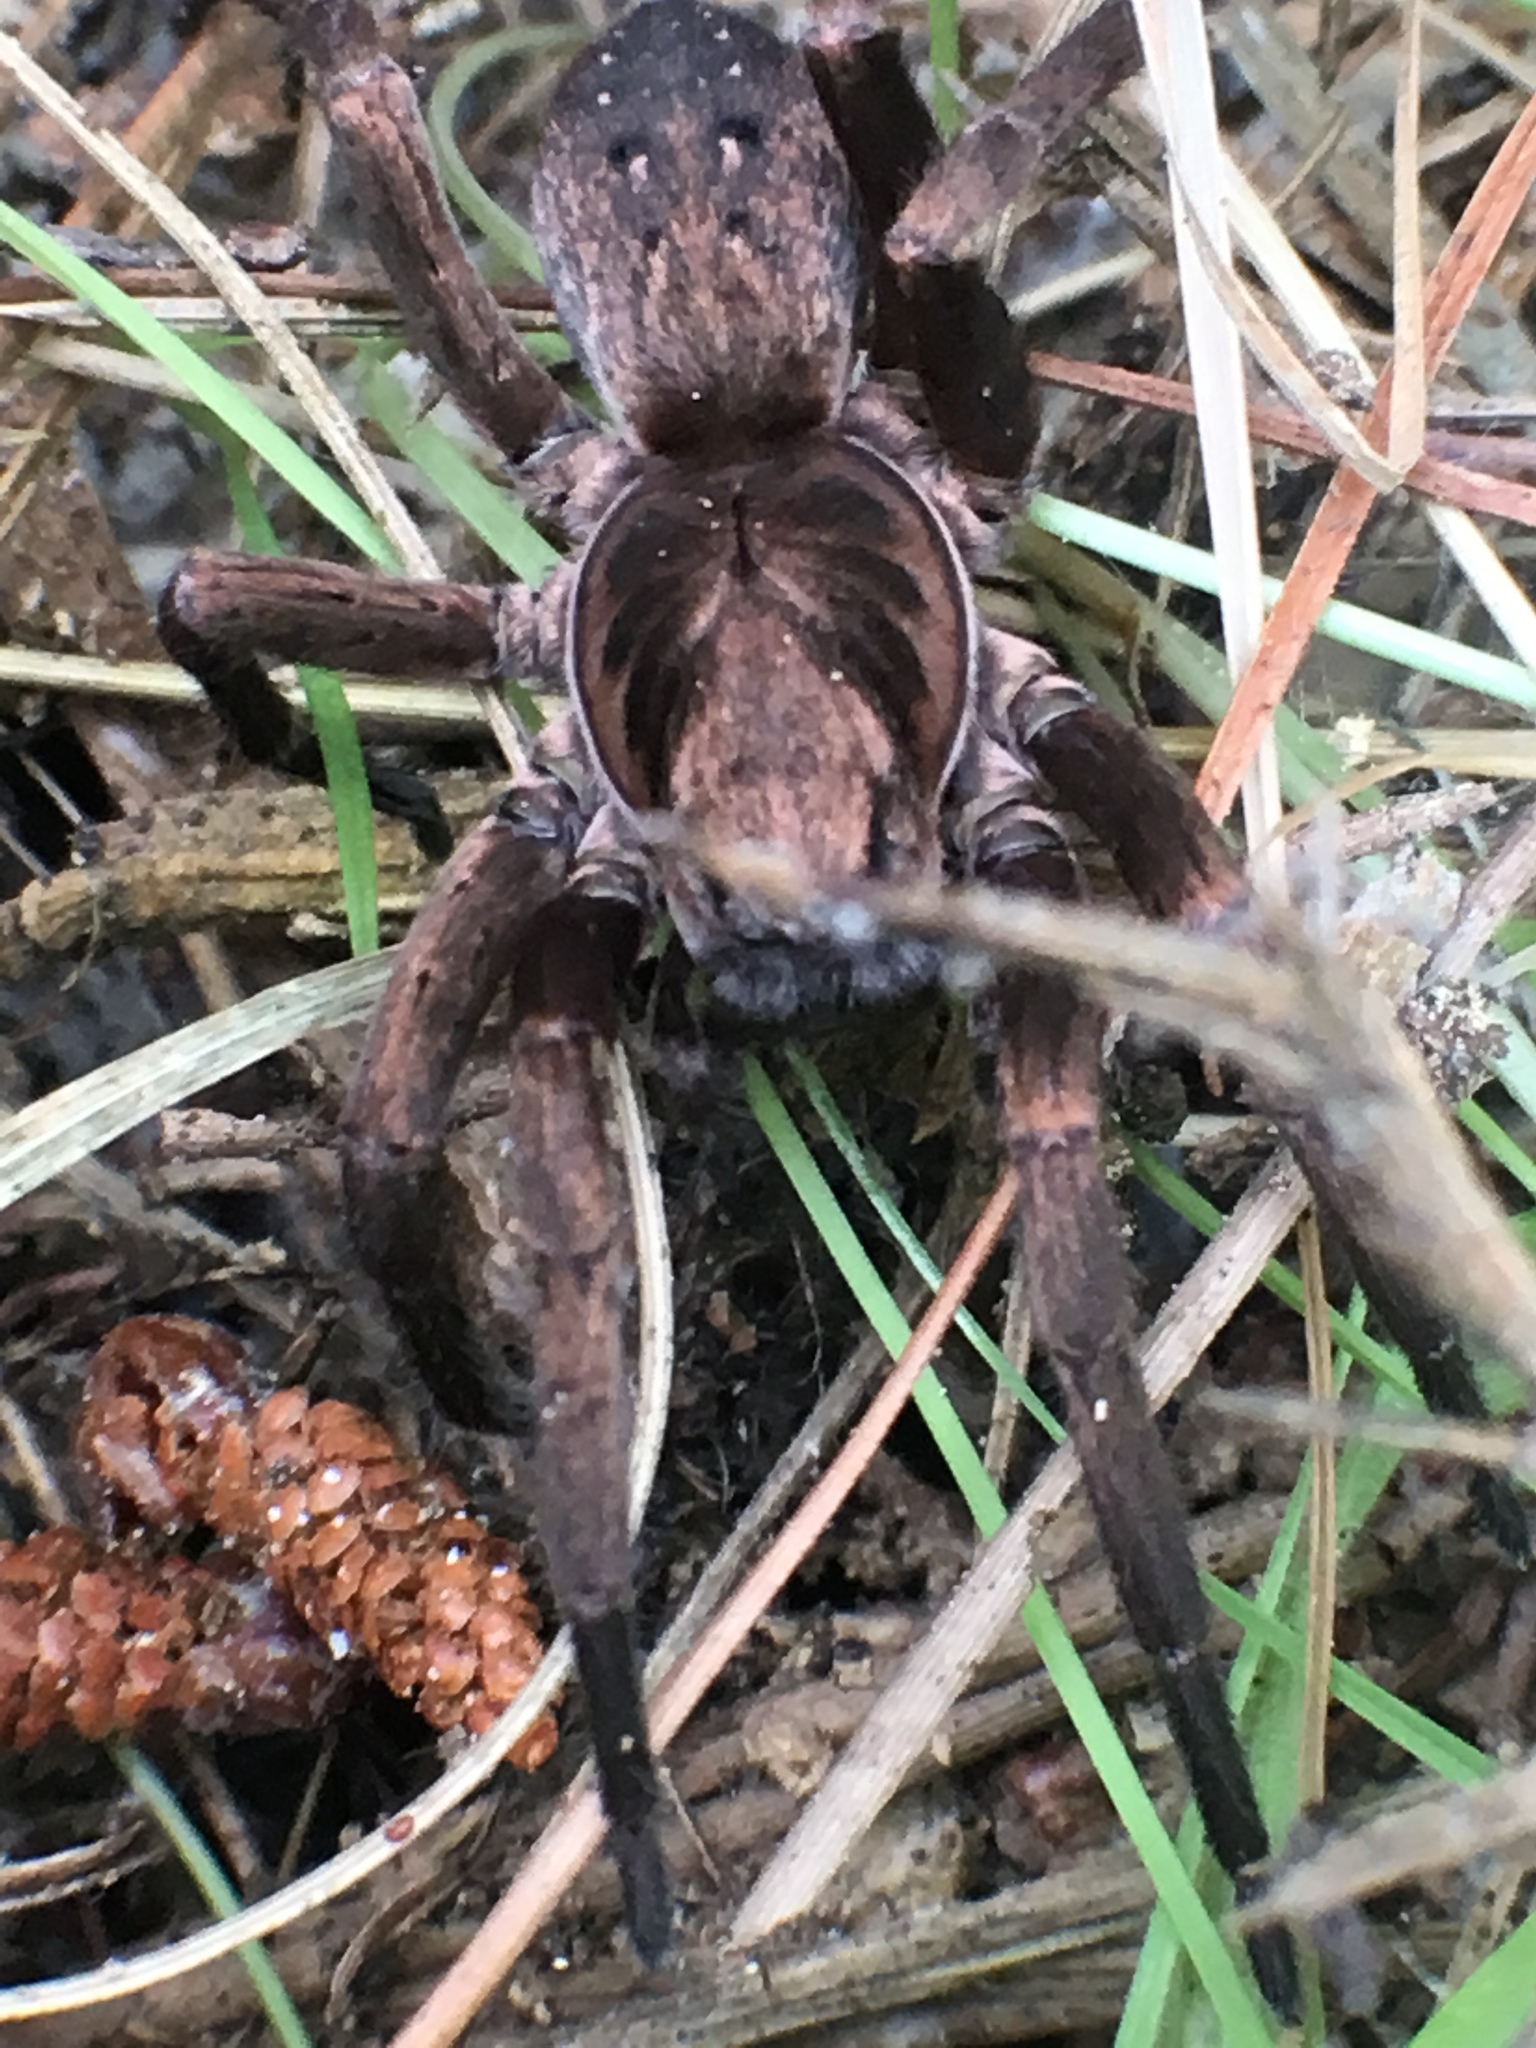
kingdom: Animalia
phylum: Arthropoda
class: Arachnida
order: Araneae
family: Zoropsidae
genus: Uliodon
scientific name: Uliodon
